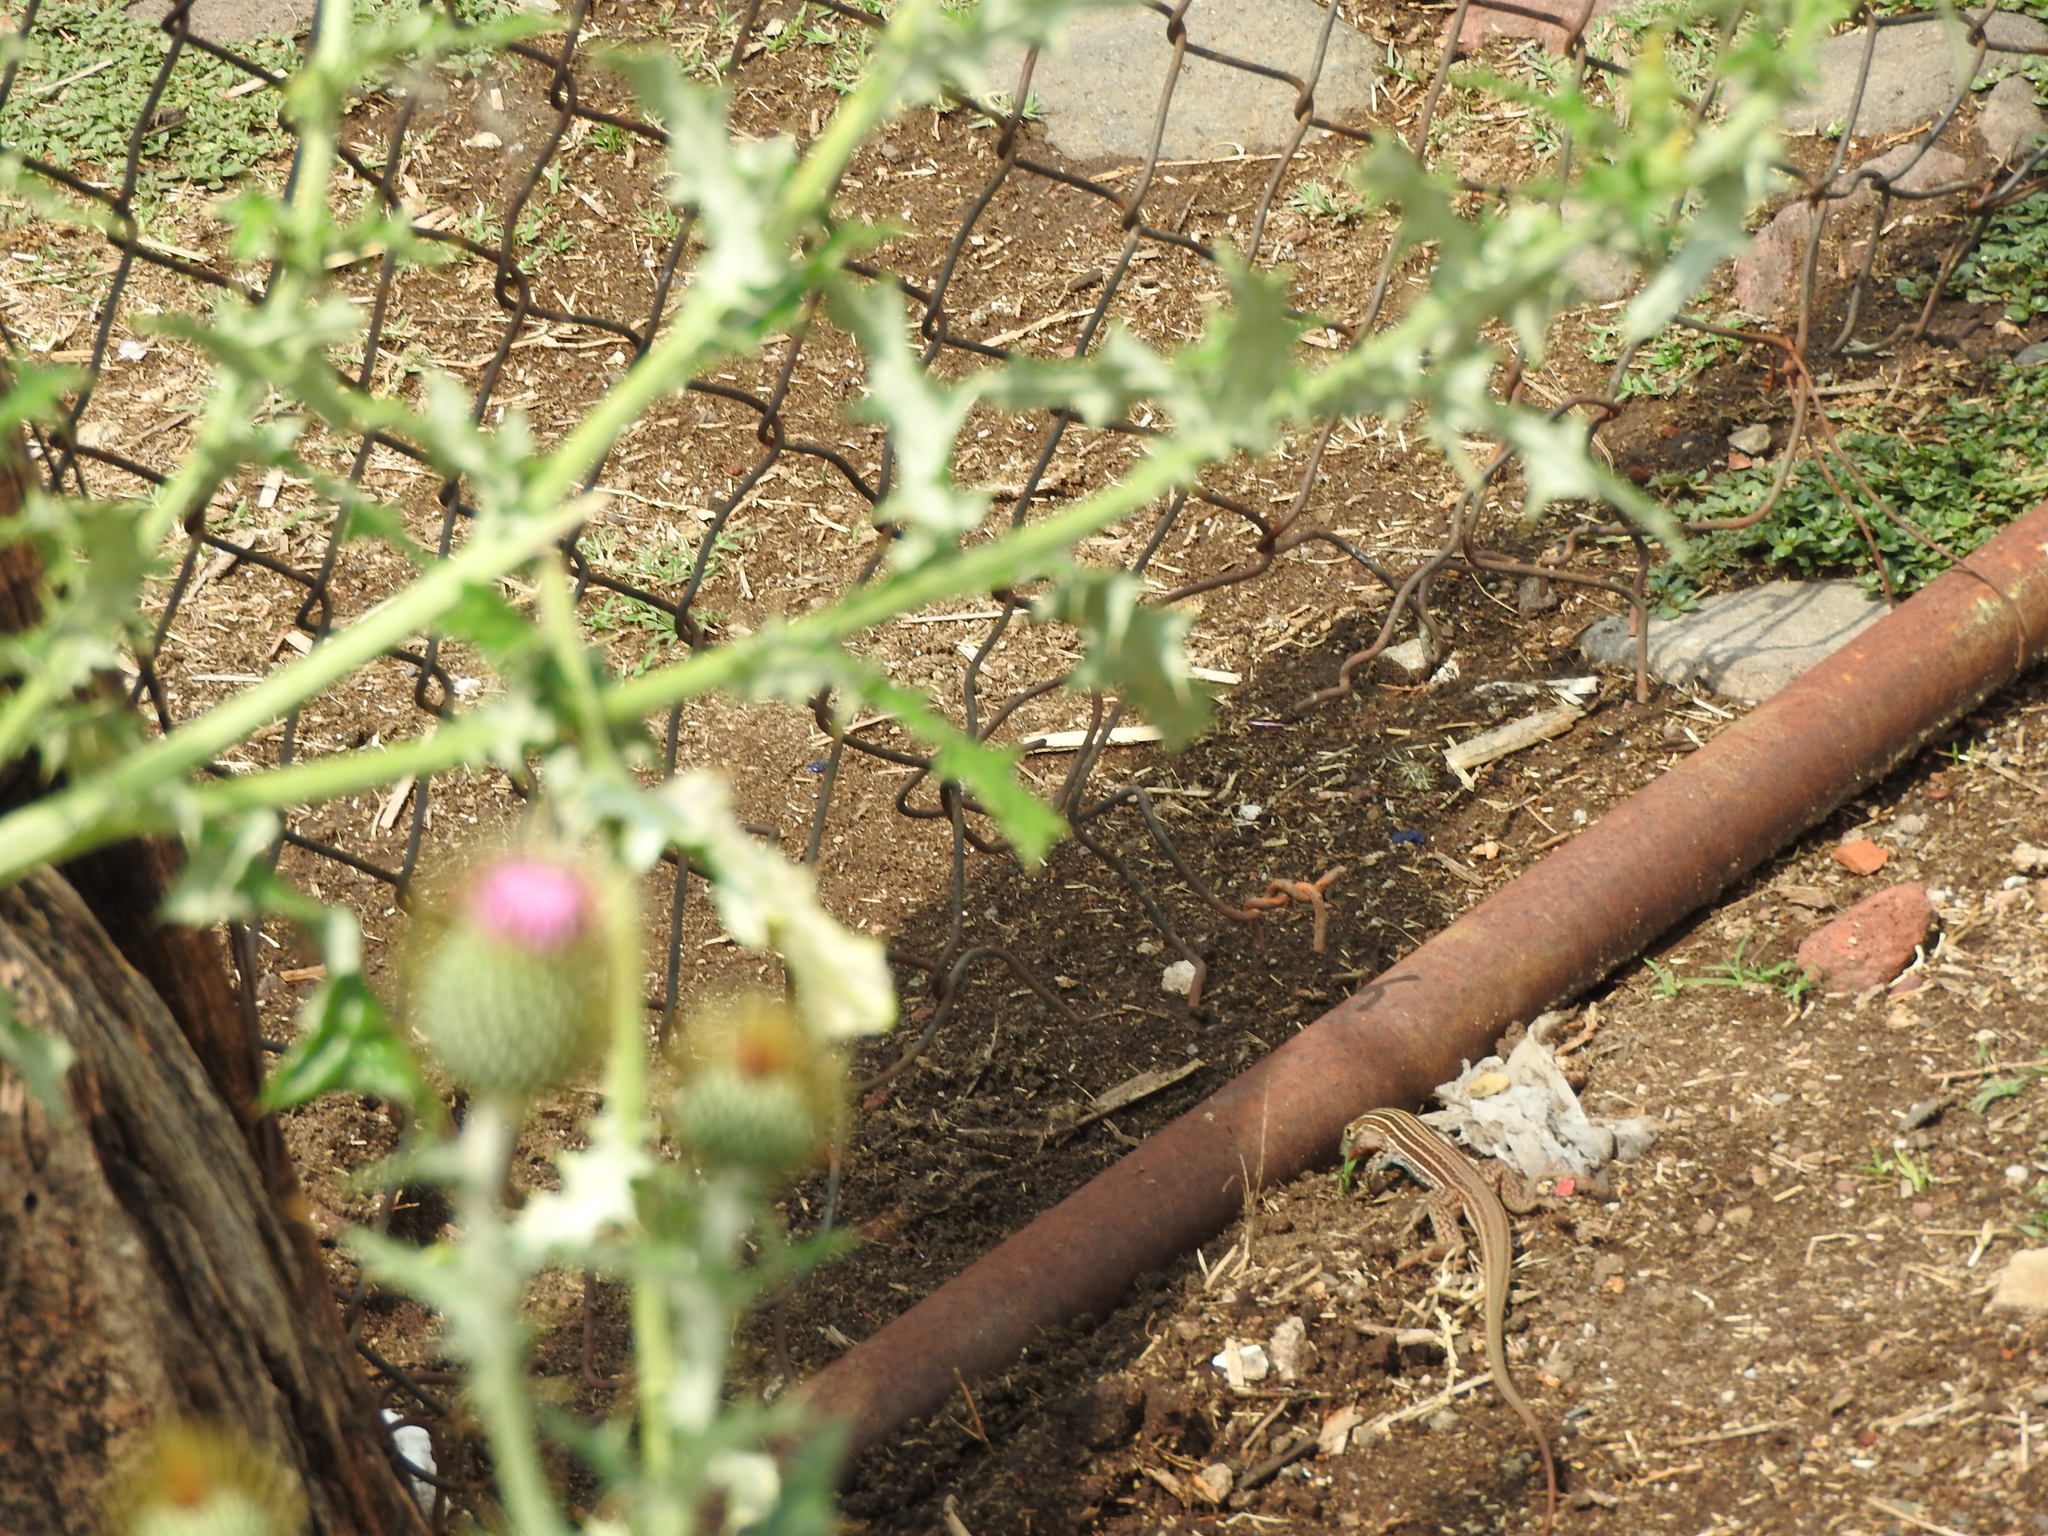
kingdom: Animalia
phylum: Chordata
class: Squamata
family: Teiidae
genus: Aspidoscelis
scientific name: Aspidoscelis gularis
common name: Eastern spotted whiptail
